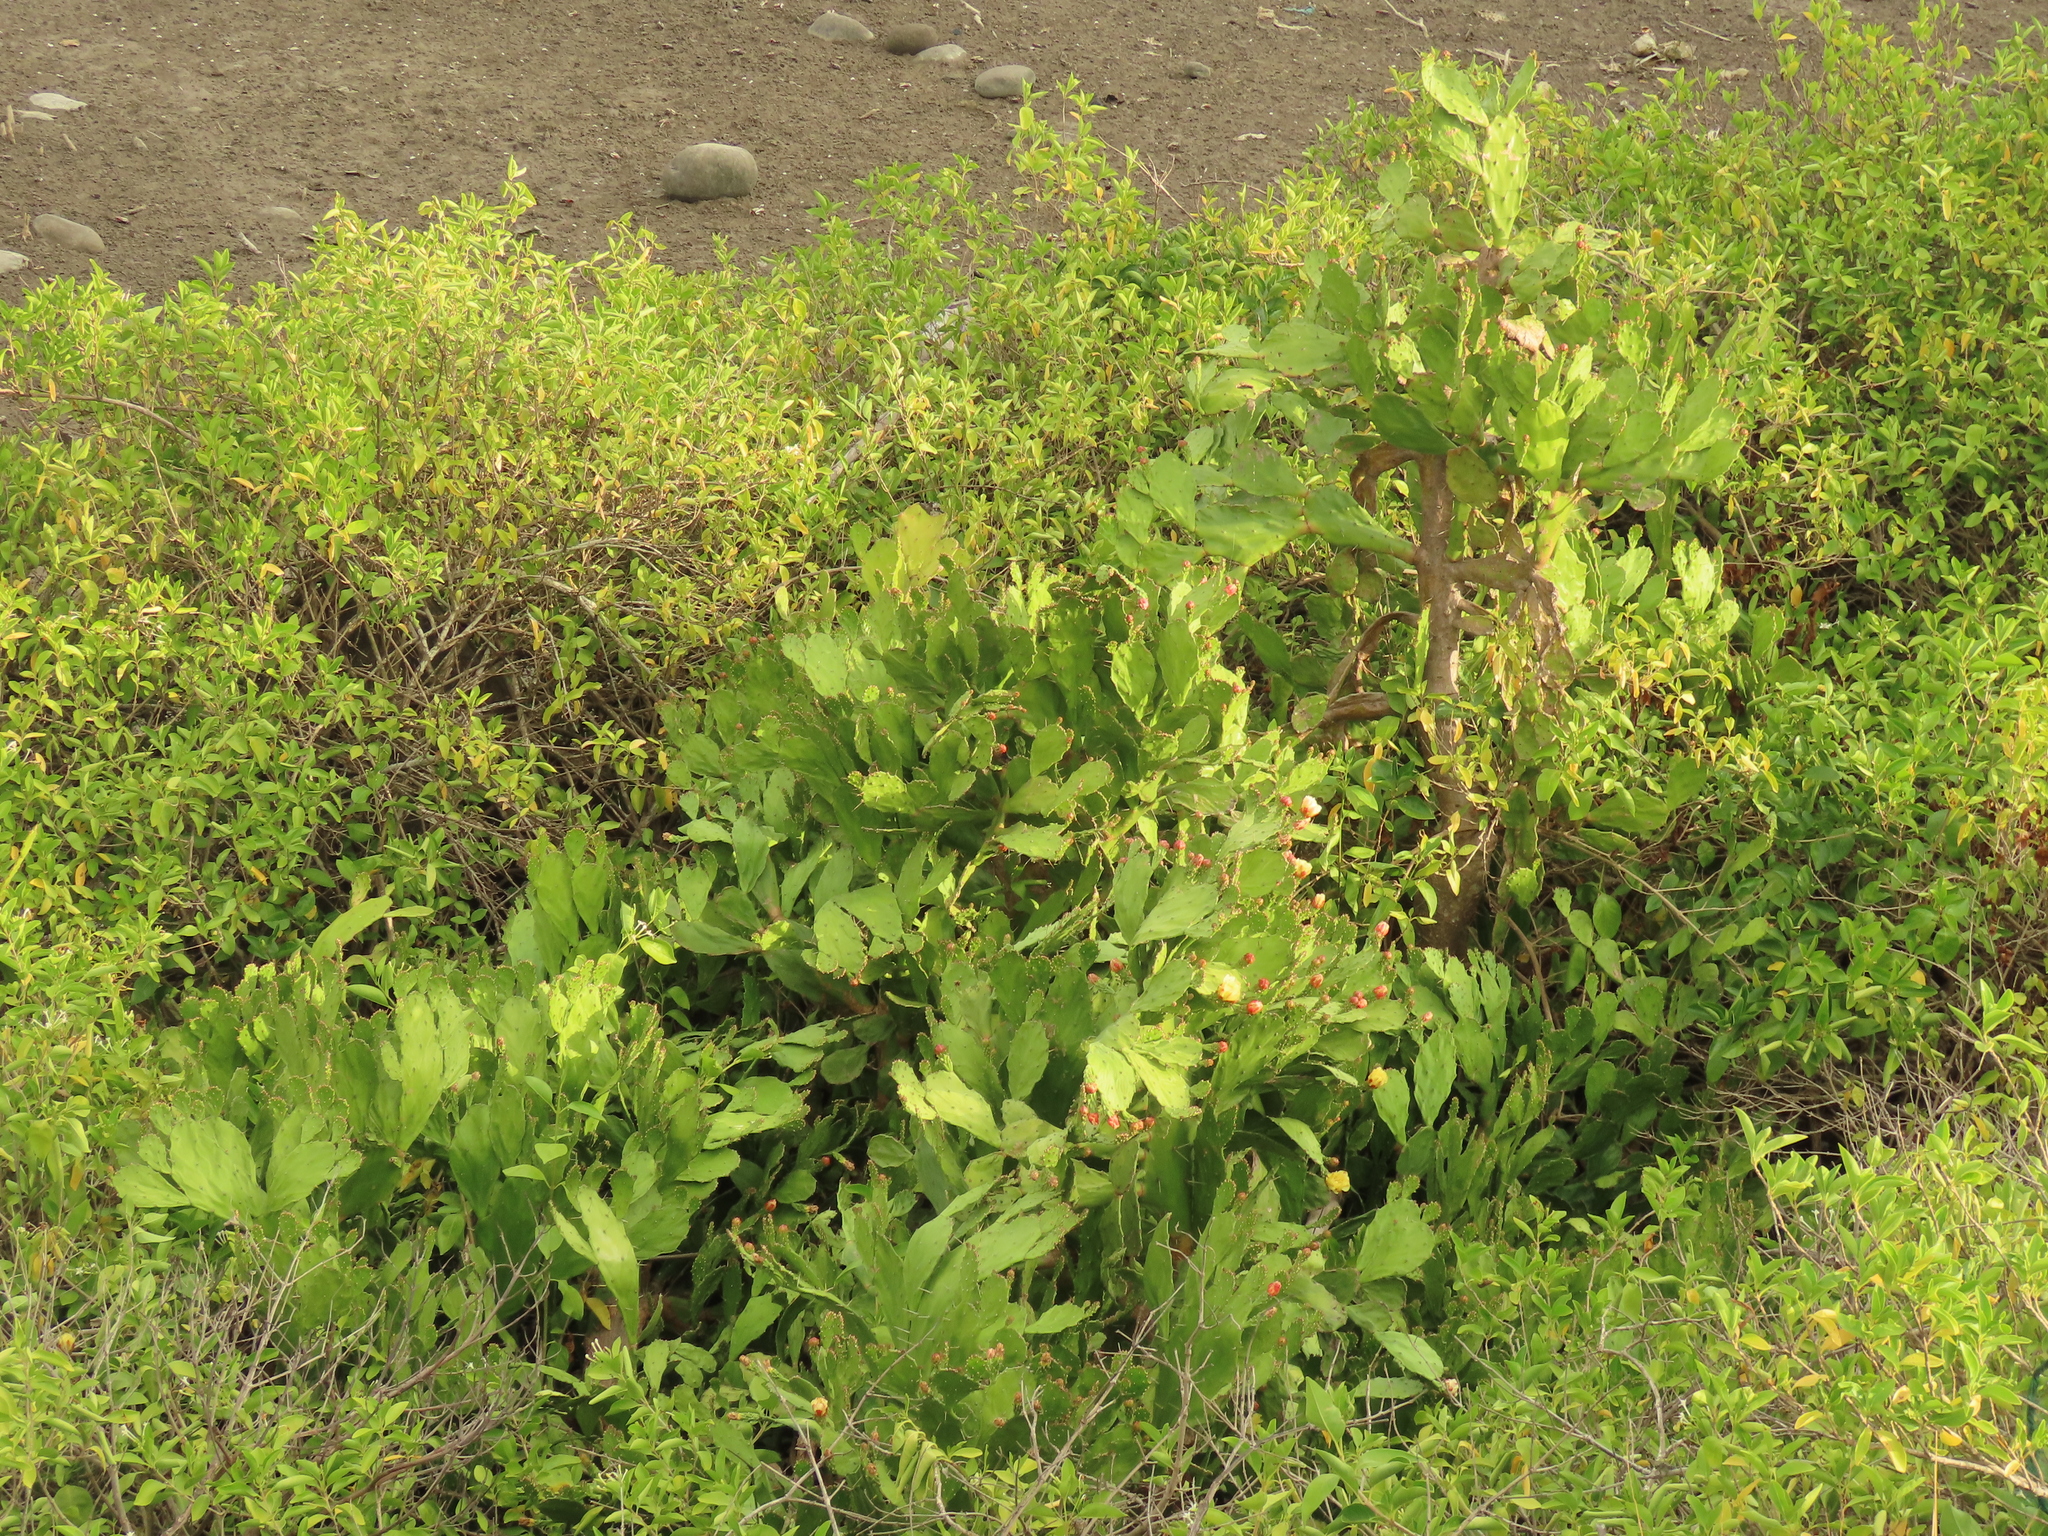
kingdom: Plantae
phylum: Tracheophyta
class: Magnoliopsida
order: Caryophyllales
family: Cactaceae
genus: Opuntia
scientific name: Opuntia monacantha
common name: Common pricklypear
